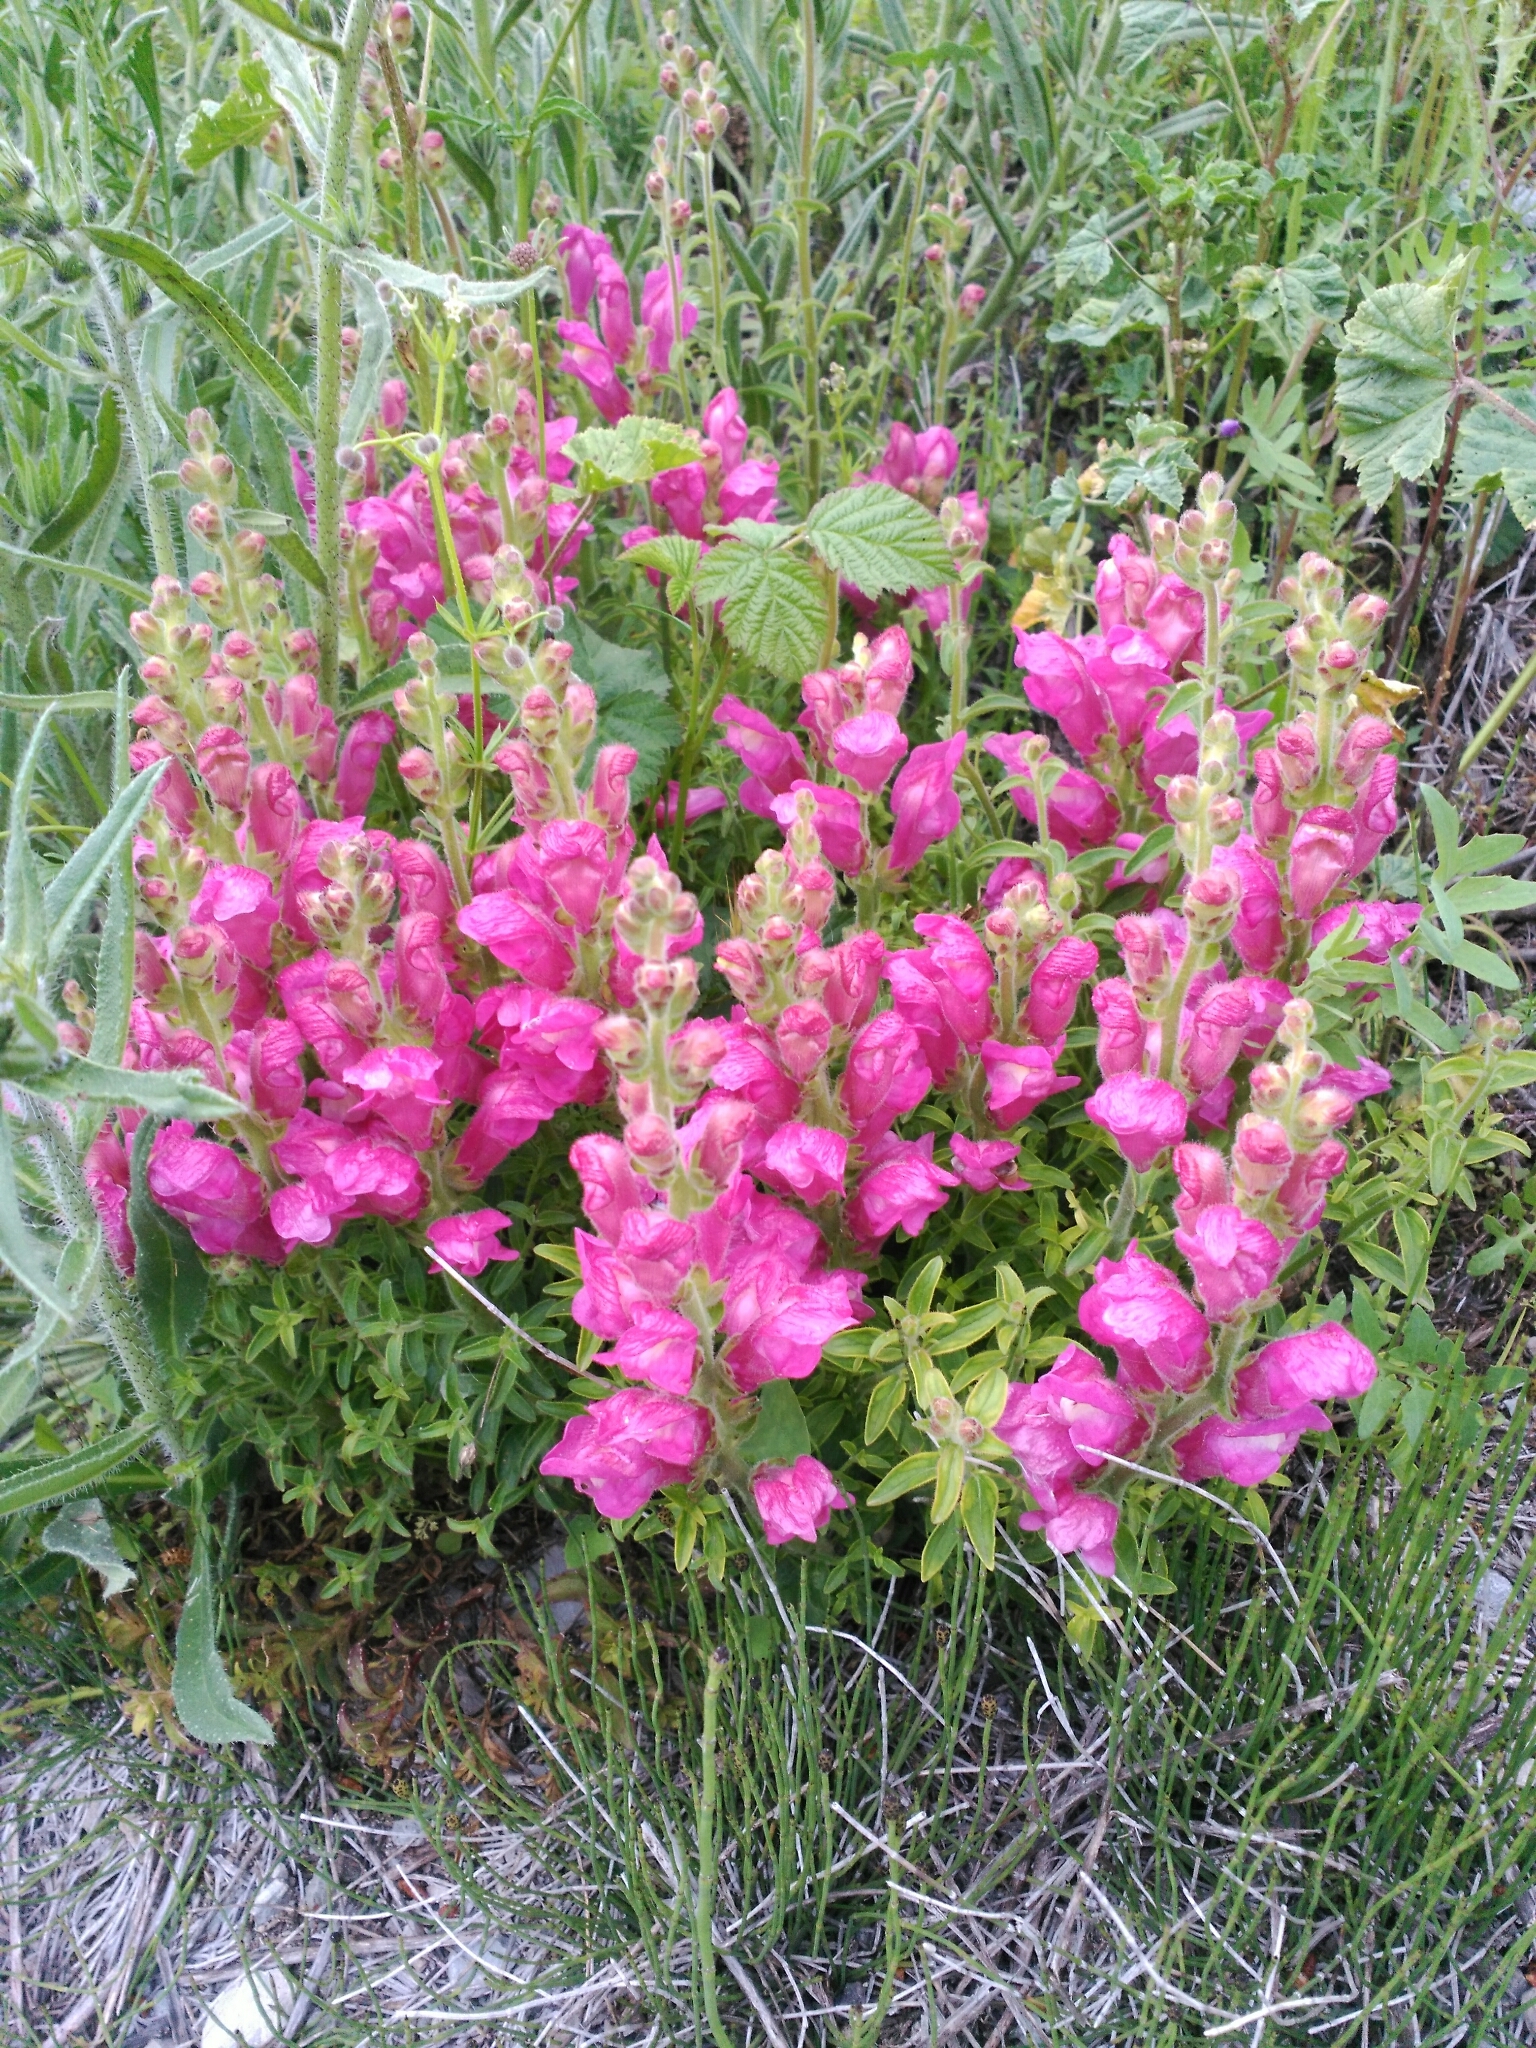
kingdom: Plantae
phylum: Tracheophyta
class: Magnoliopsida
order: Lamiales
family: Plantaginaceae
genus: Antirrhinum
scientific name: Antirrhinum majus
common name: Snapdragon
